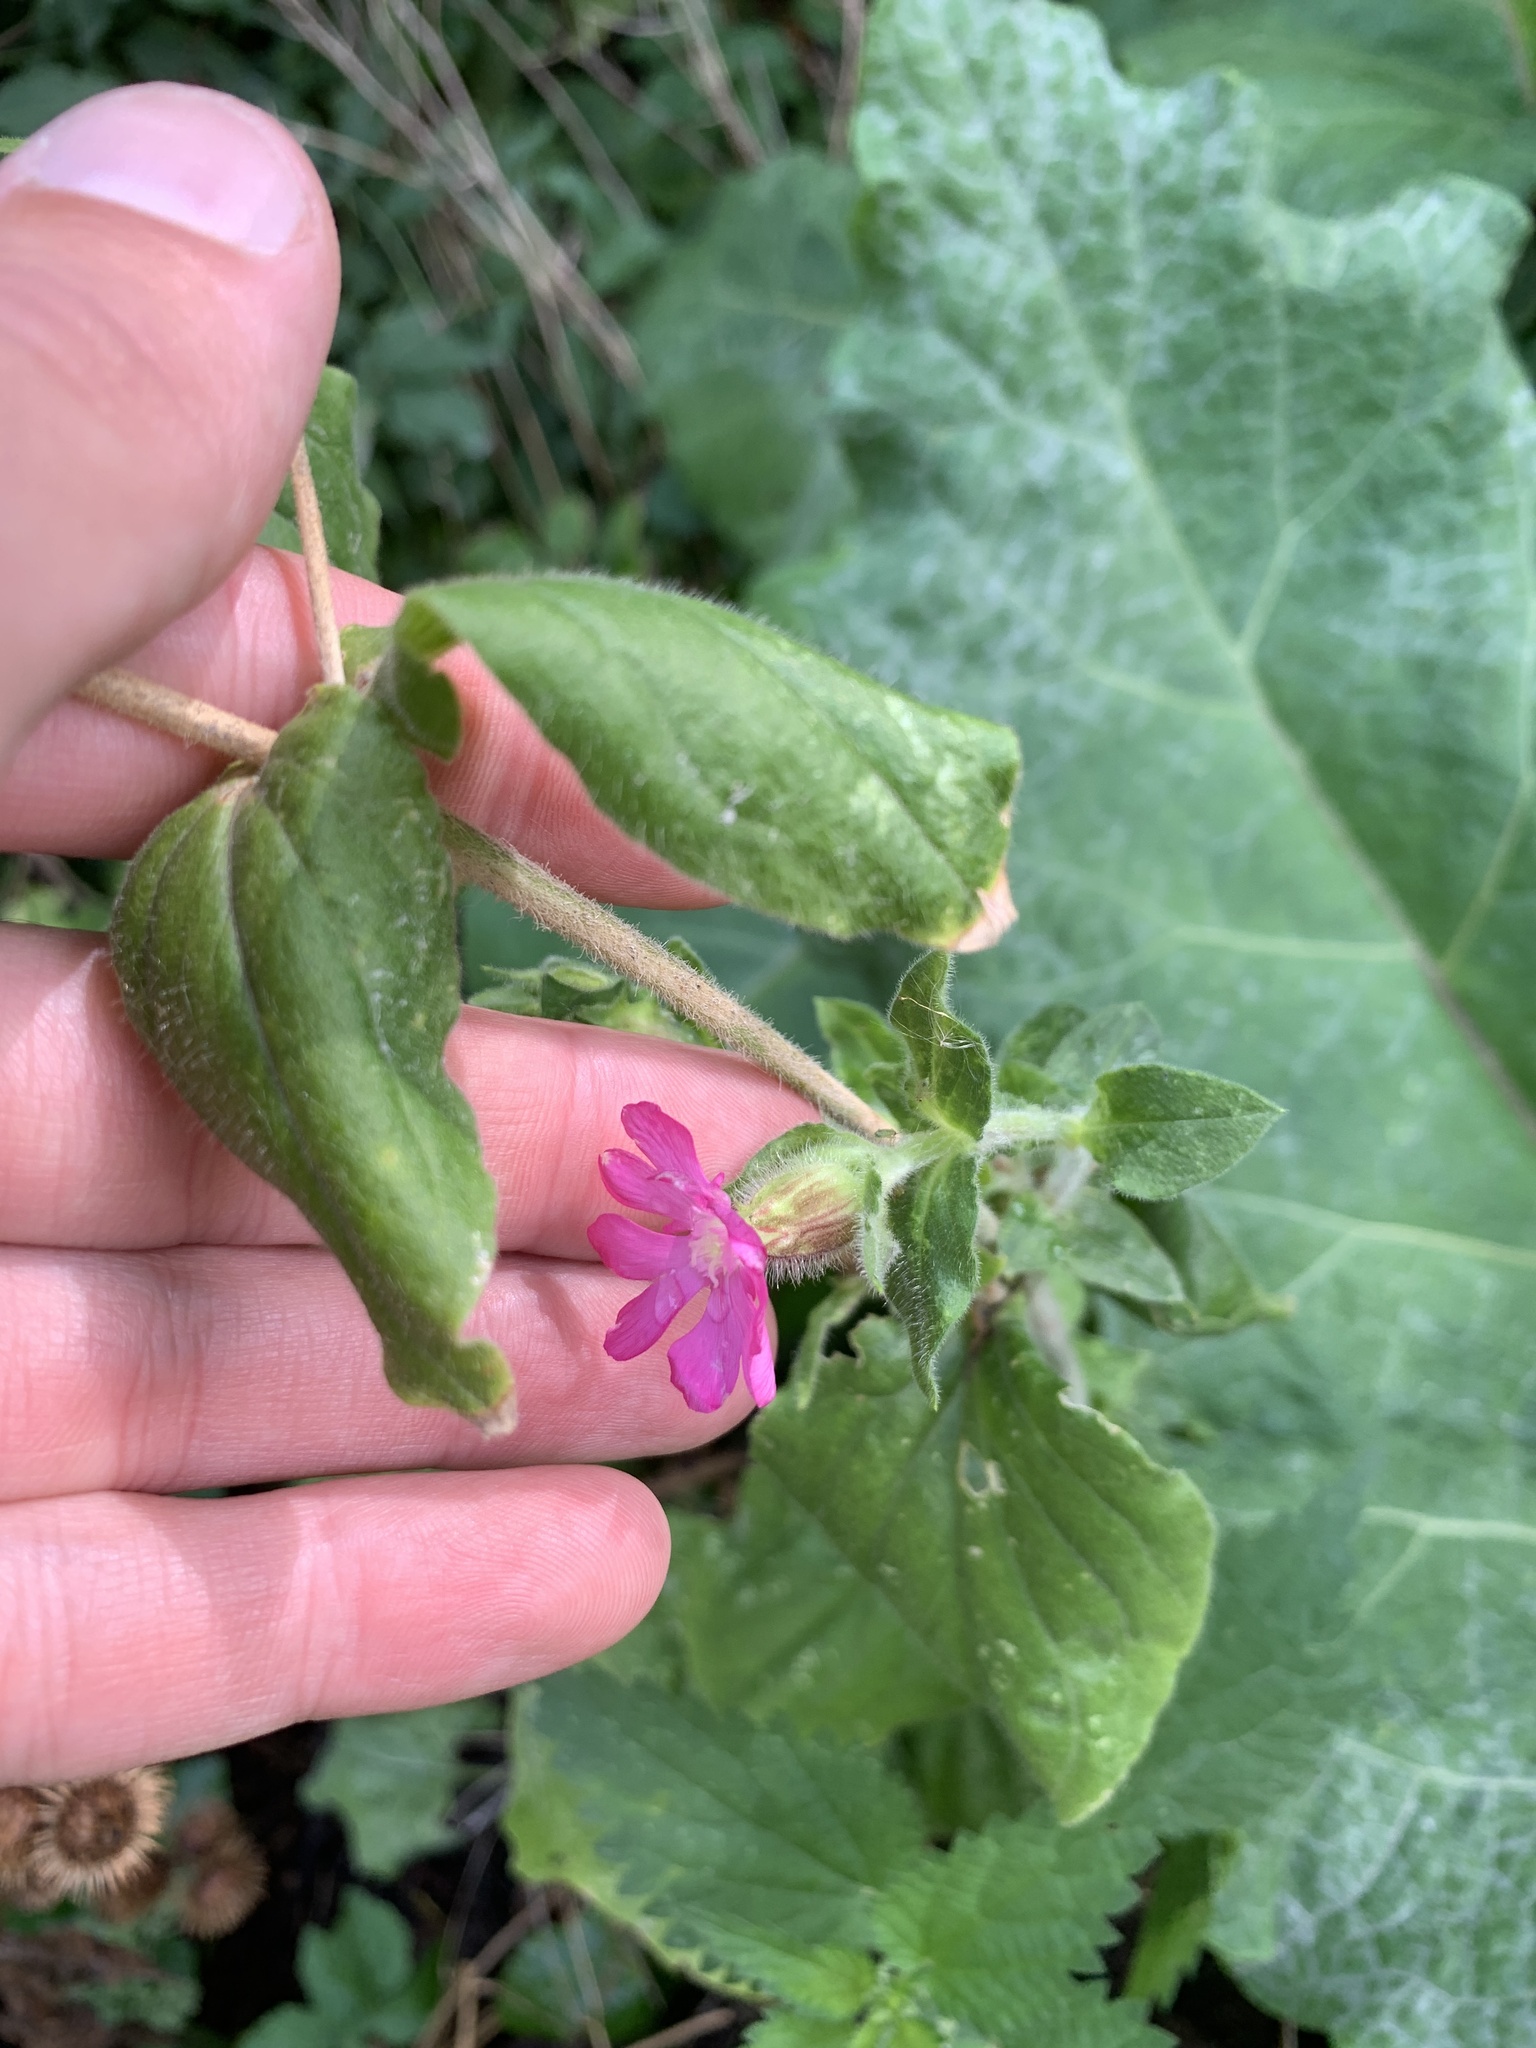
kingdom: Plantae
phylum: Tracheophyta
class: Magnoliopsida
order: Caryophyllales
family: Caryophyllaceae
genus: Silene
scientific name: Silene dioica
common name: Red campion
